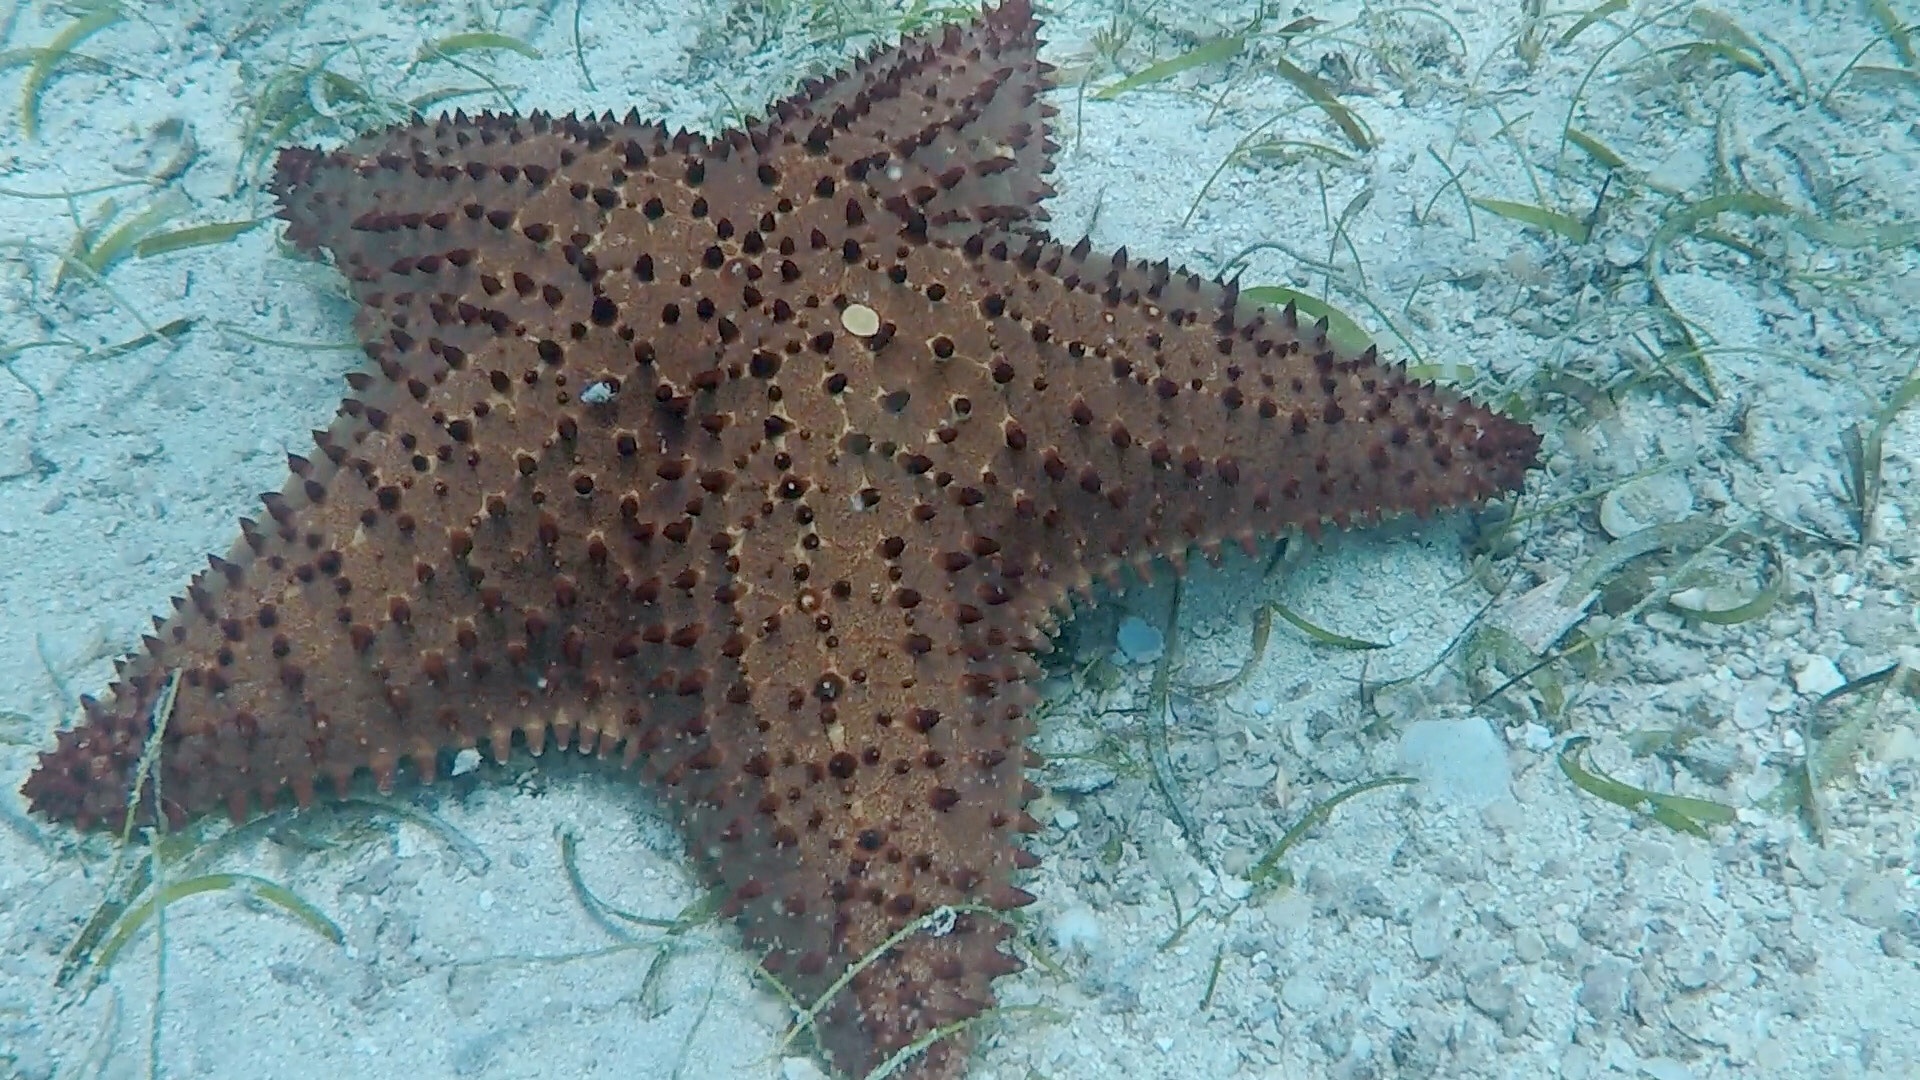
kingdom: Animalia
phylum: Echinodermata
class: Asteroidea
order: Valvatida
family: Oreasteridae
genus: Oreaster
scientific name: Oreaster reticulatus
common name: Cushion sea star
